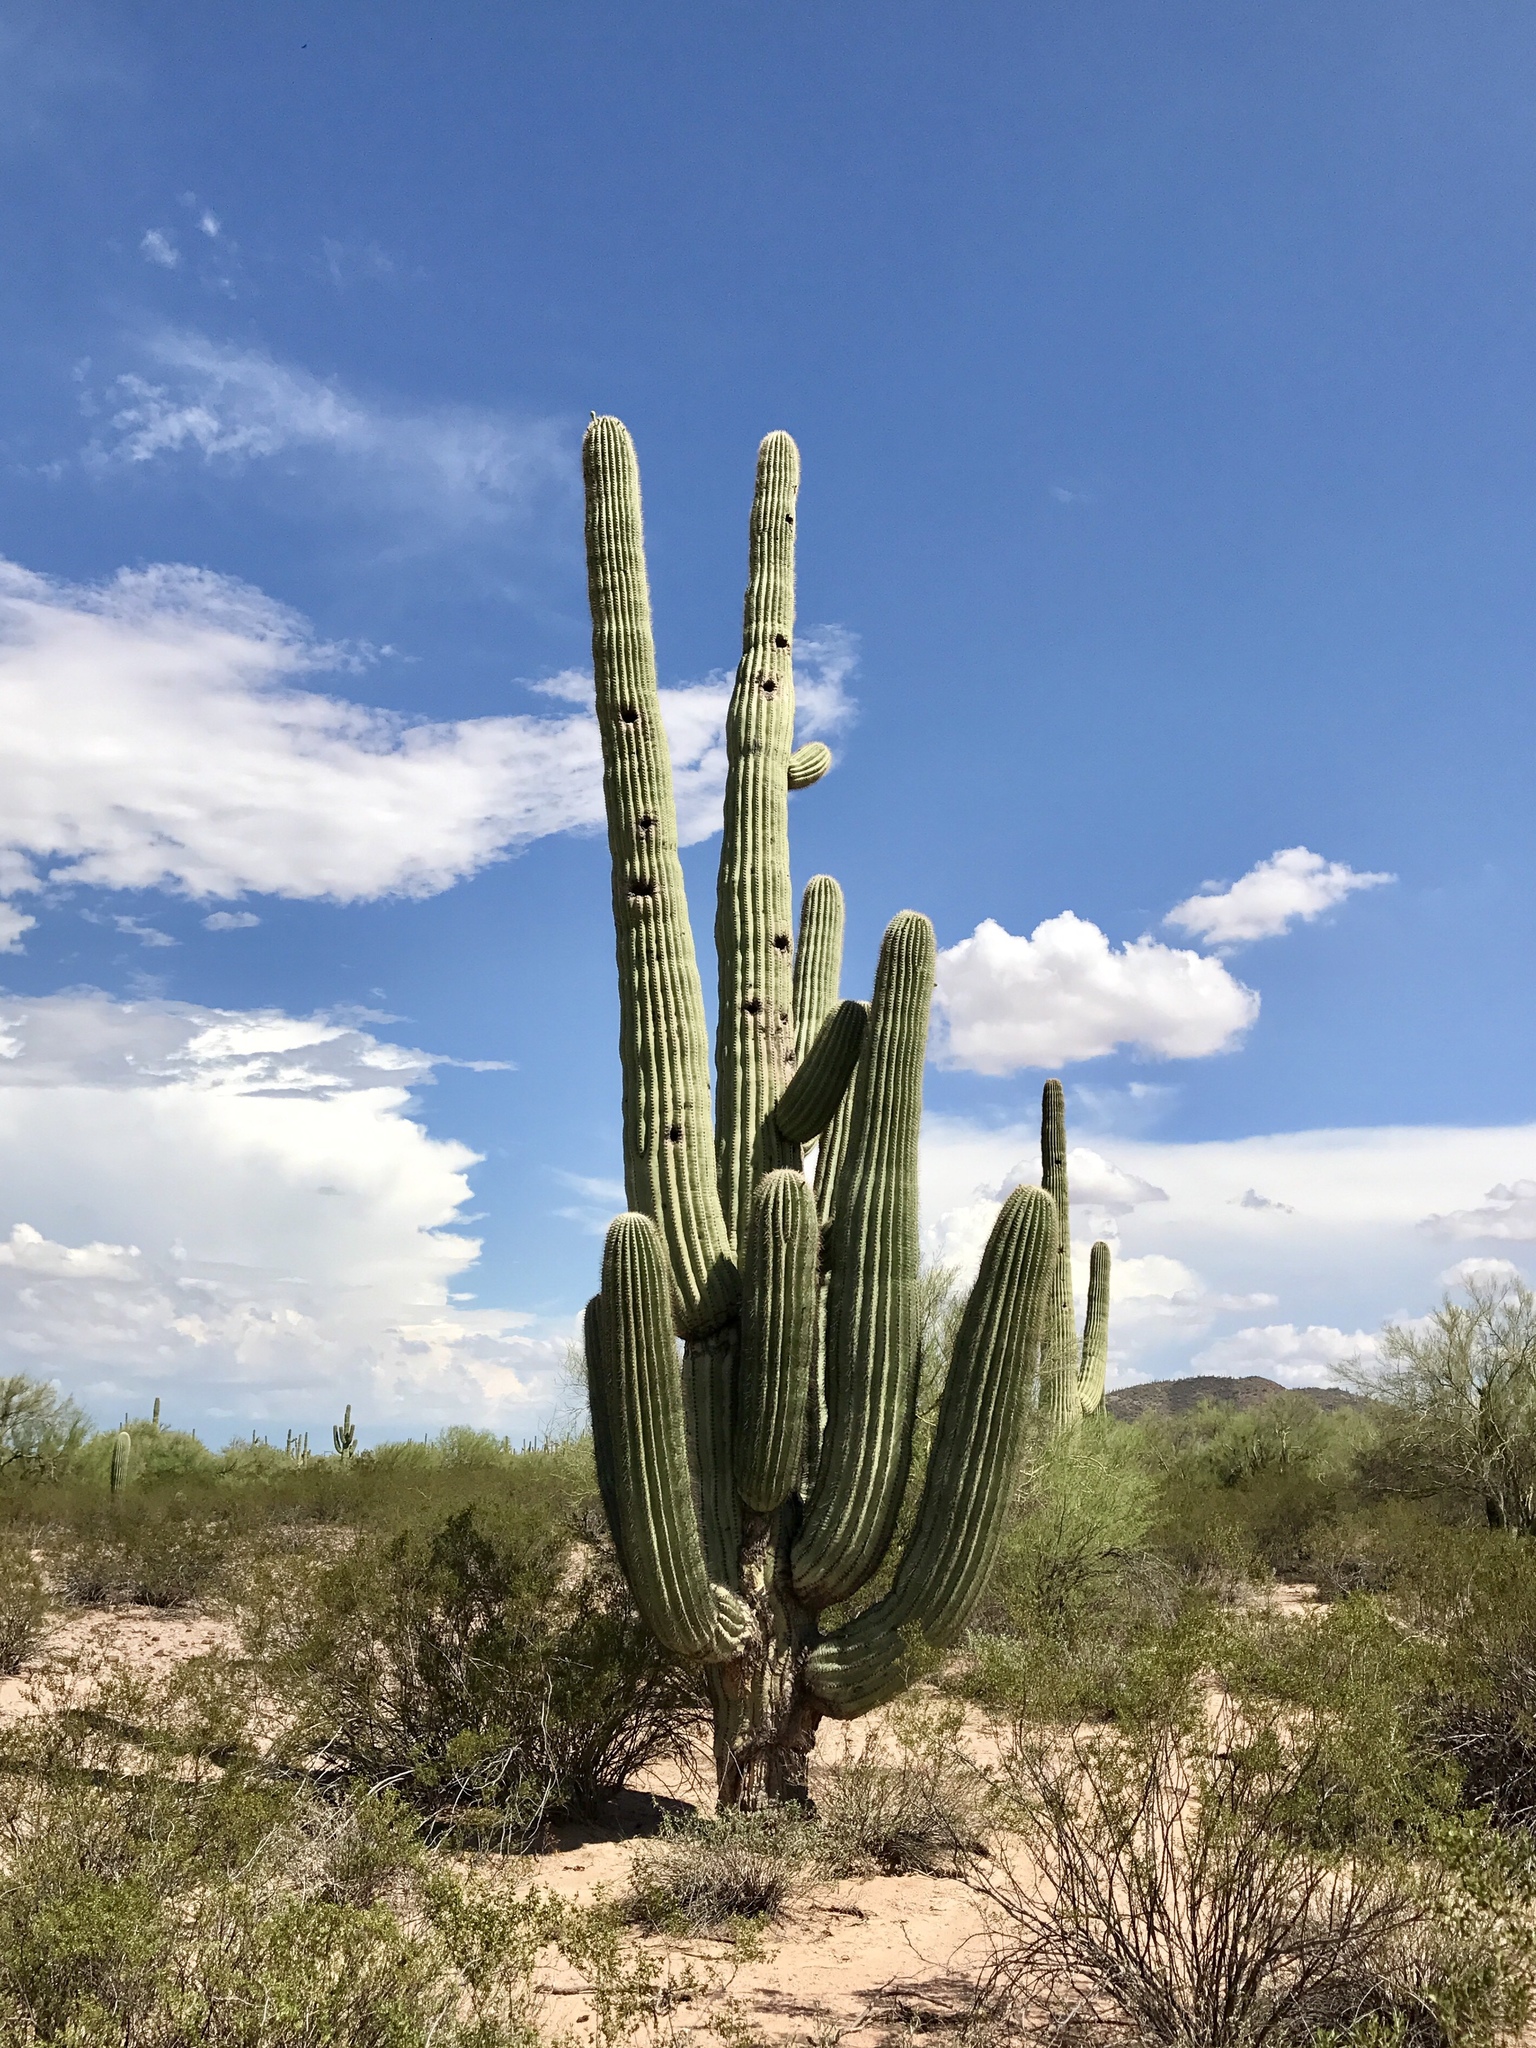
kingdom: Plantae
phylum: Tracheophyta
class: Magnoliopsida
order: Caryophyllales
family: Cactaceae
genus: Carnegiea
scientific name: Carnegiea gigantea
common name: Saguaro
